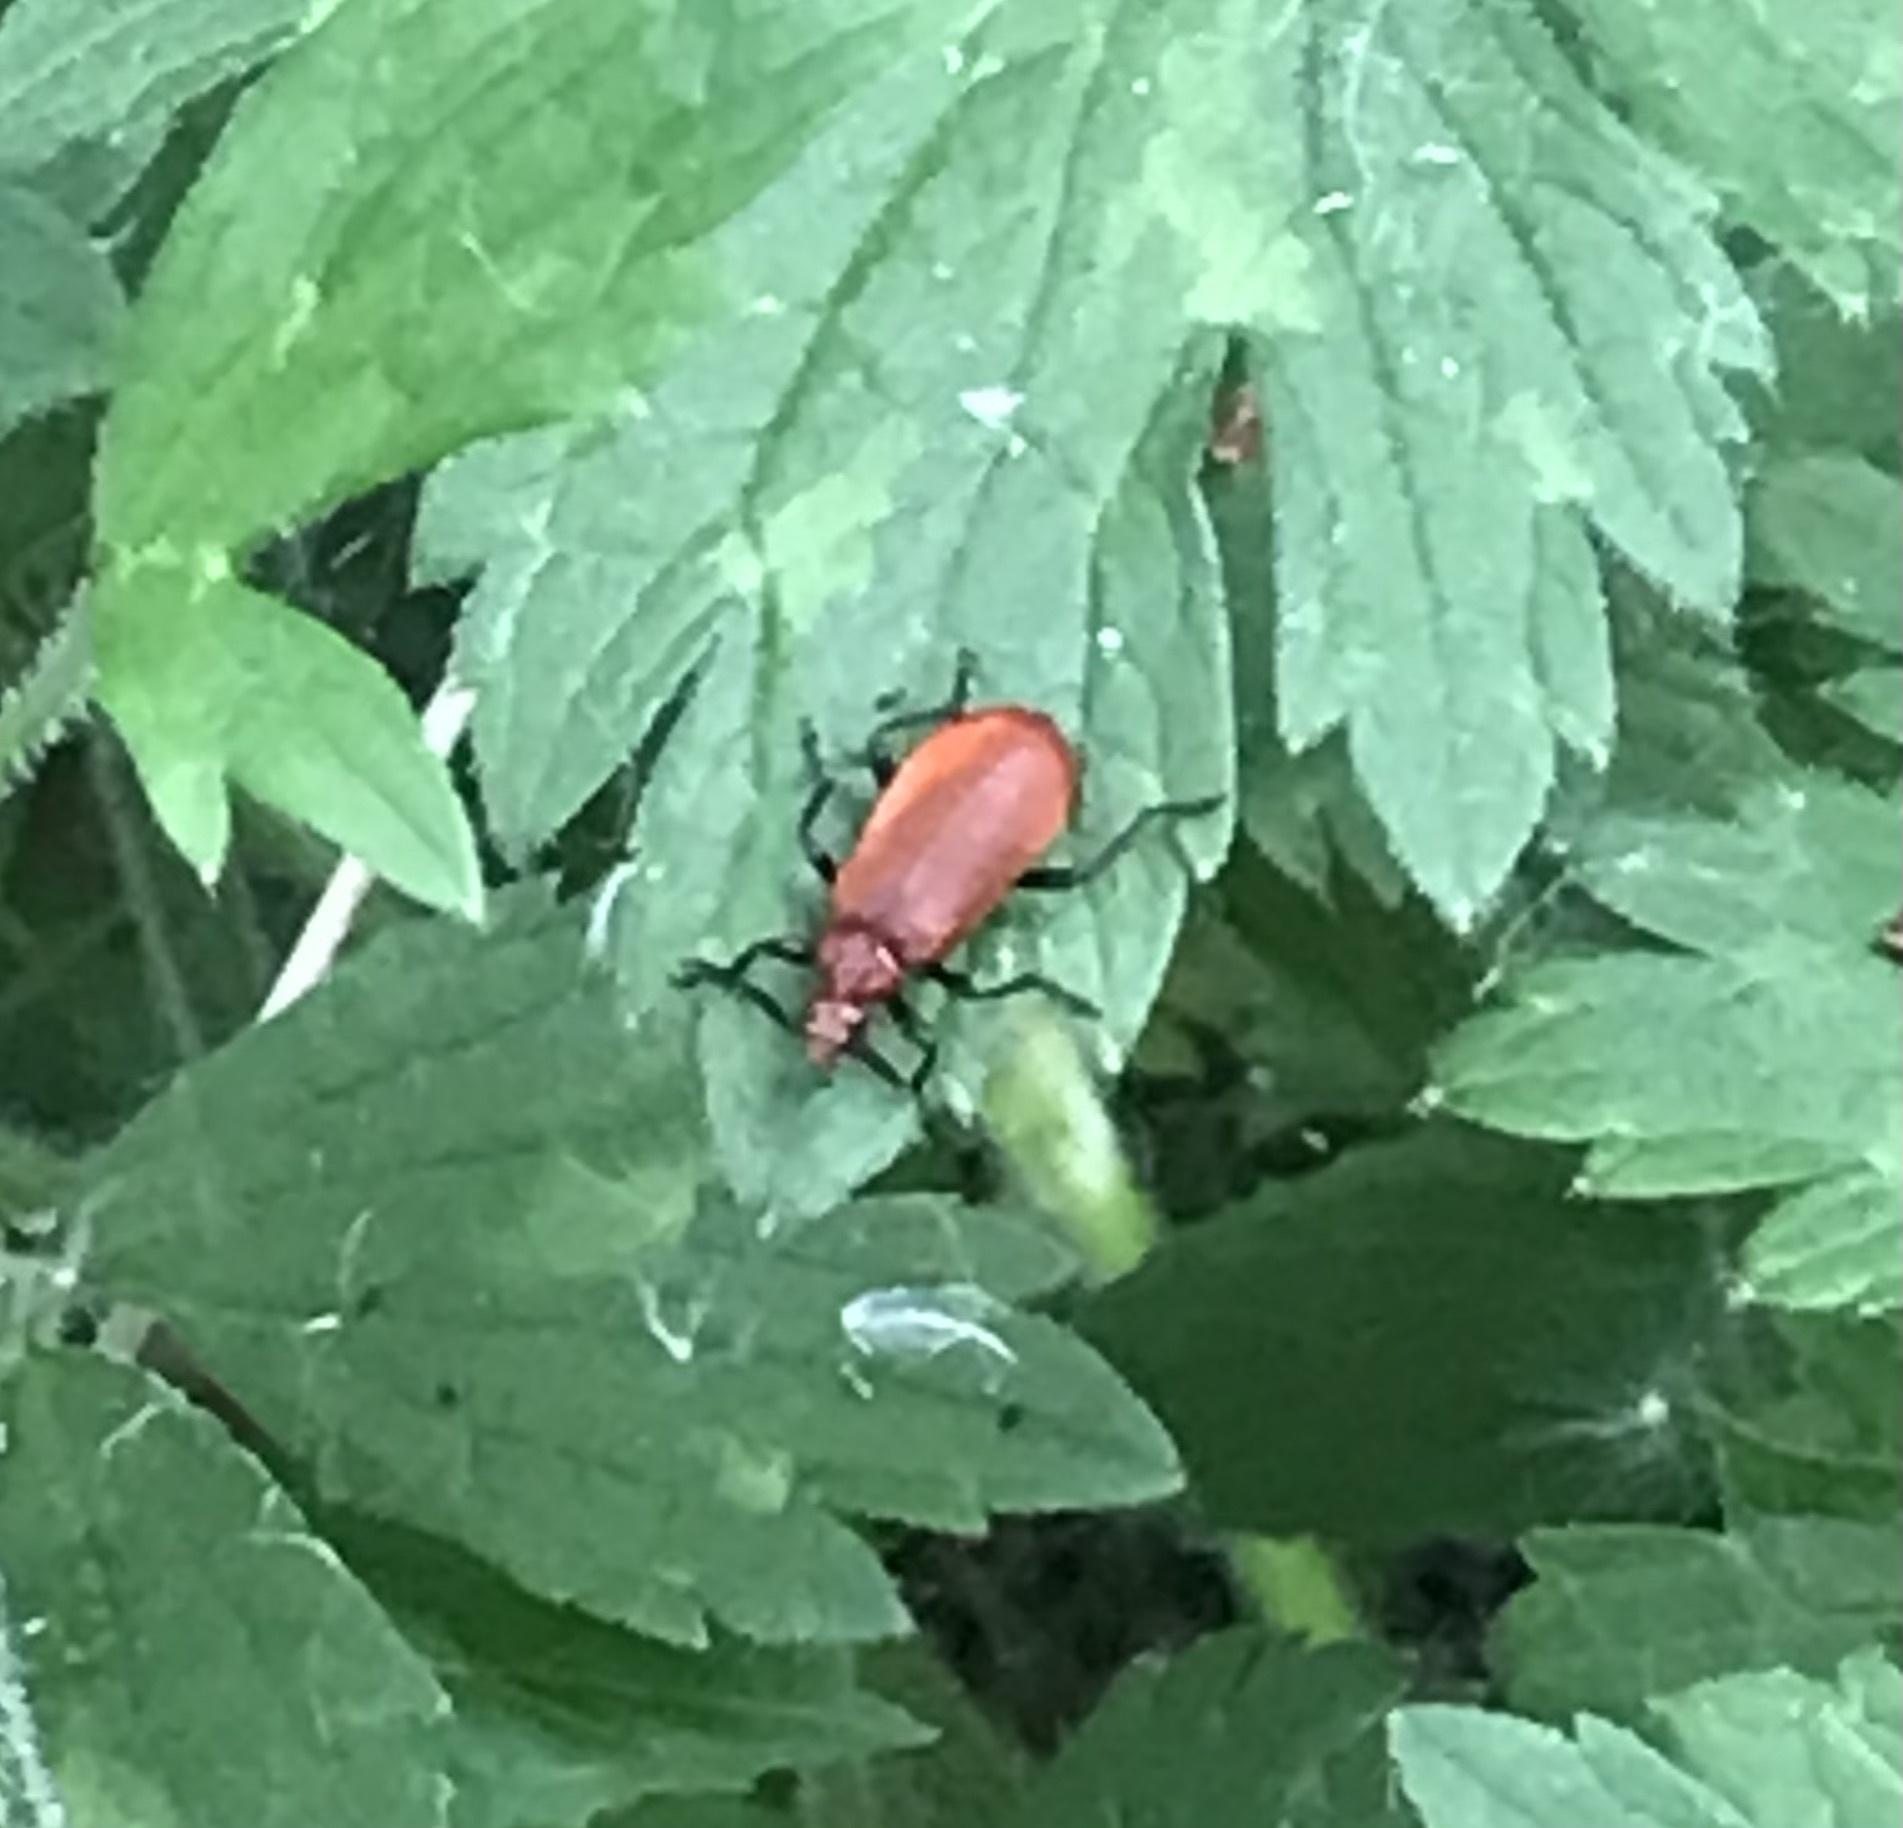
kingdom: Animalia
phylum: Arthropoda
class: Insecta
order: Coleoptera
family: Pyrochroidae
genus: Pyrochroa
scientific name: Pyrochroa serraticornis
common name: Red-headed cardinal beetle
